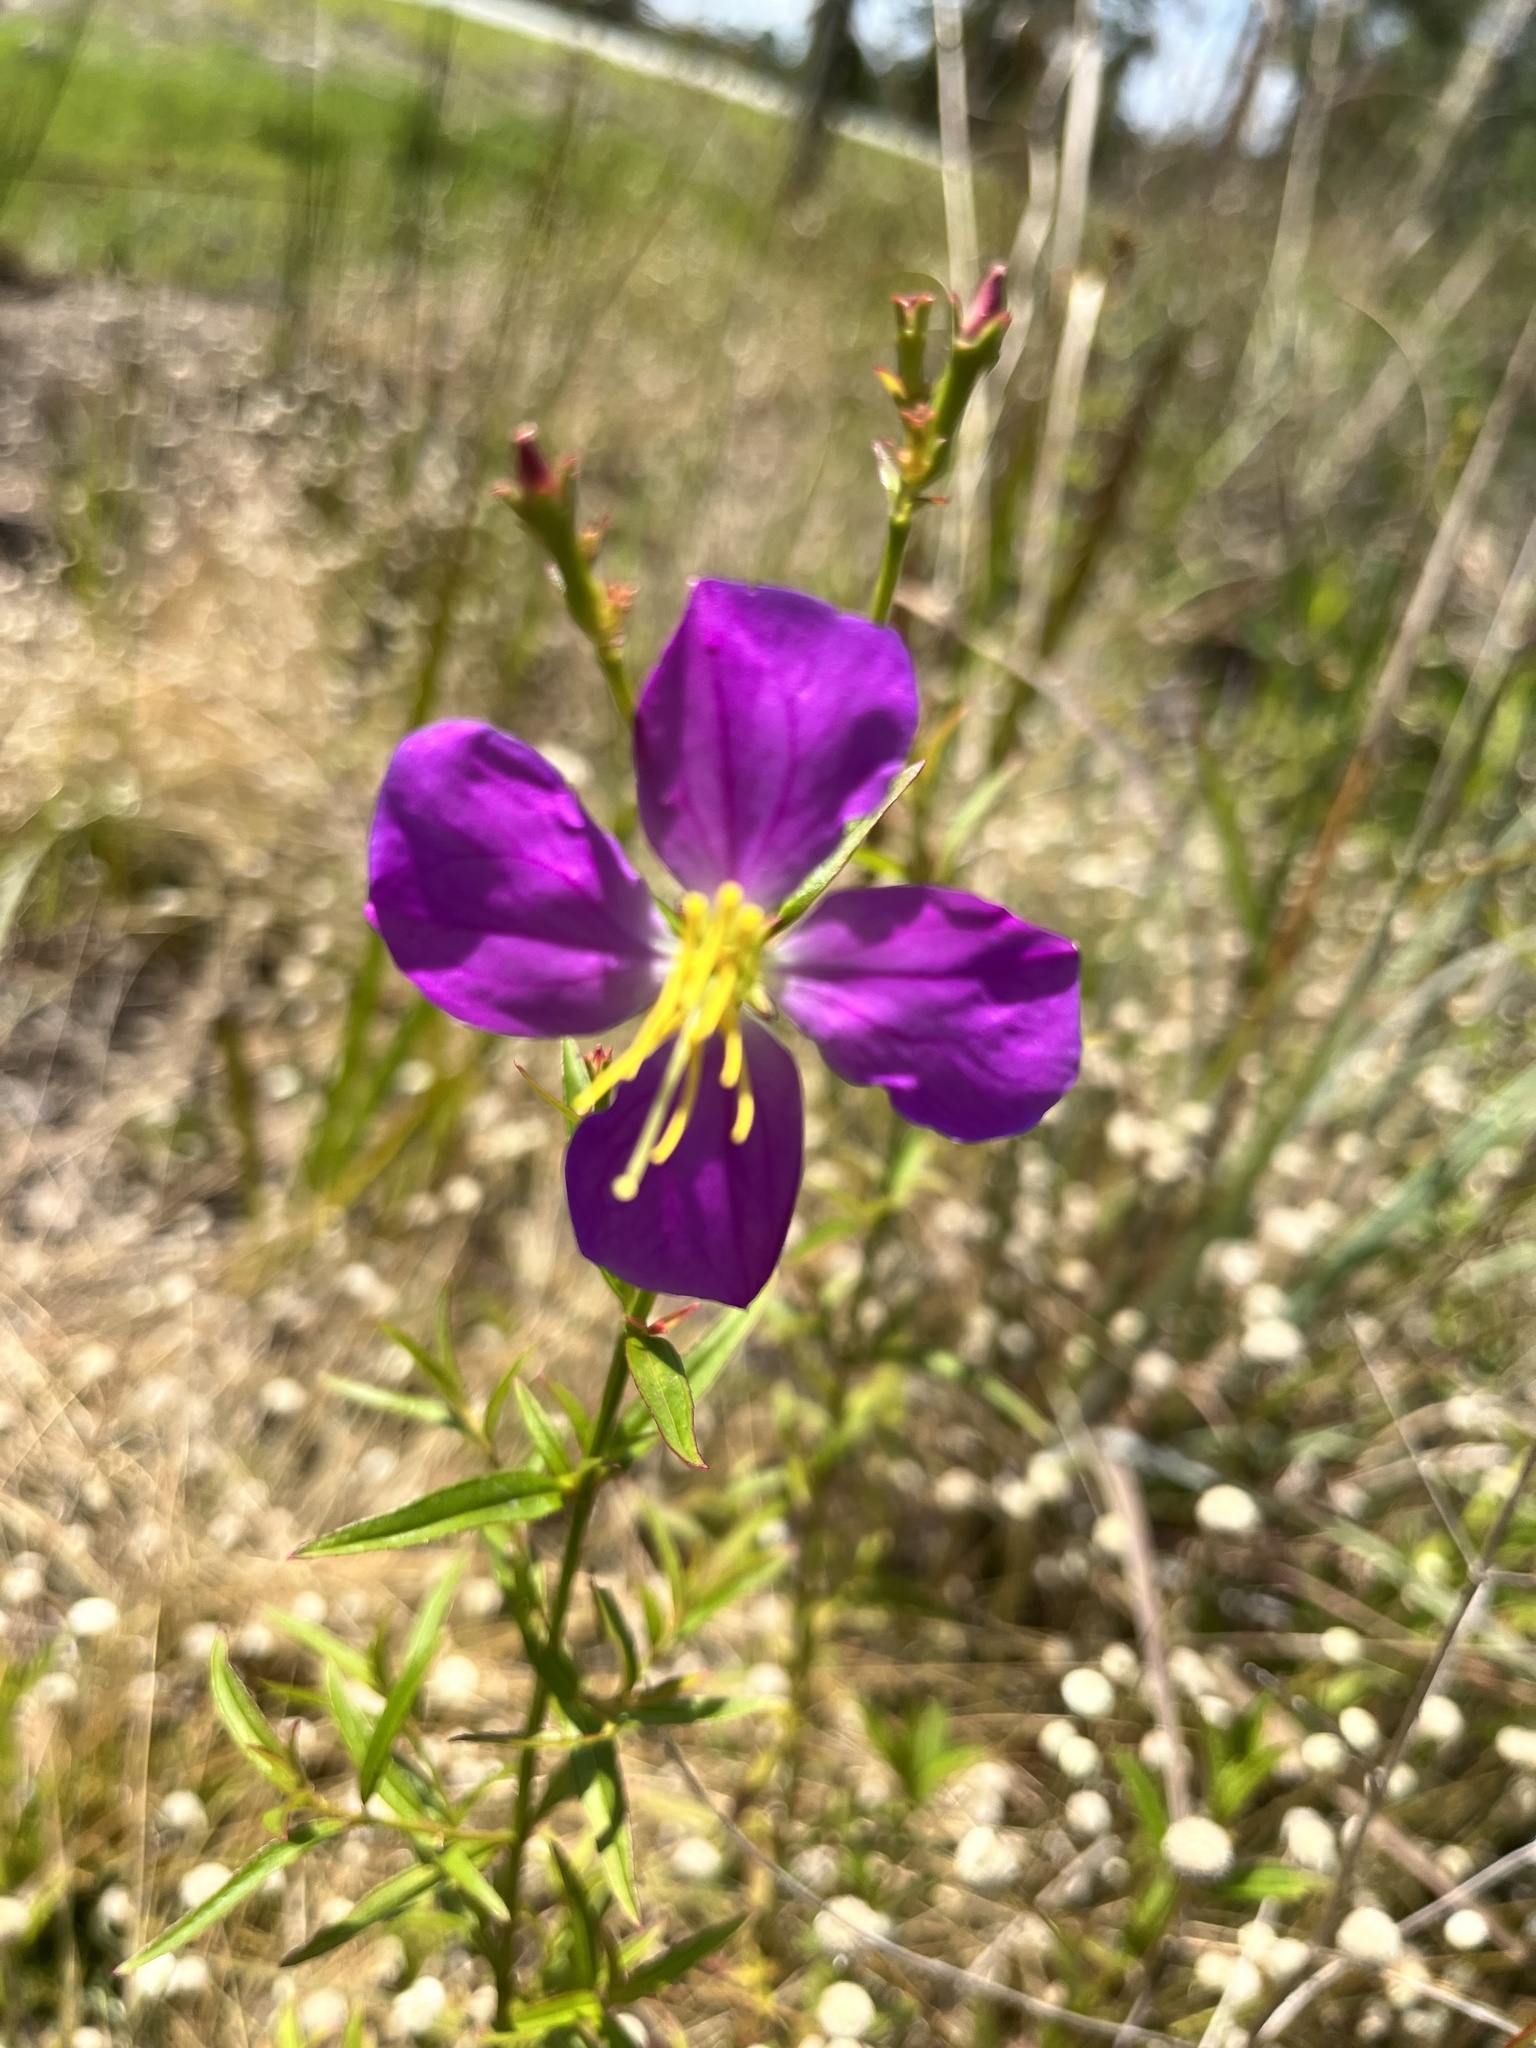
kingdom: Plantae
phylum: Tracheophyta
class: Magnoliopsida
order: Myrtales
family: Melastomataceae
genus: Rhexia
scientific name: Rhexia cubensis
